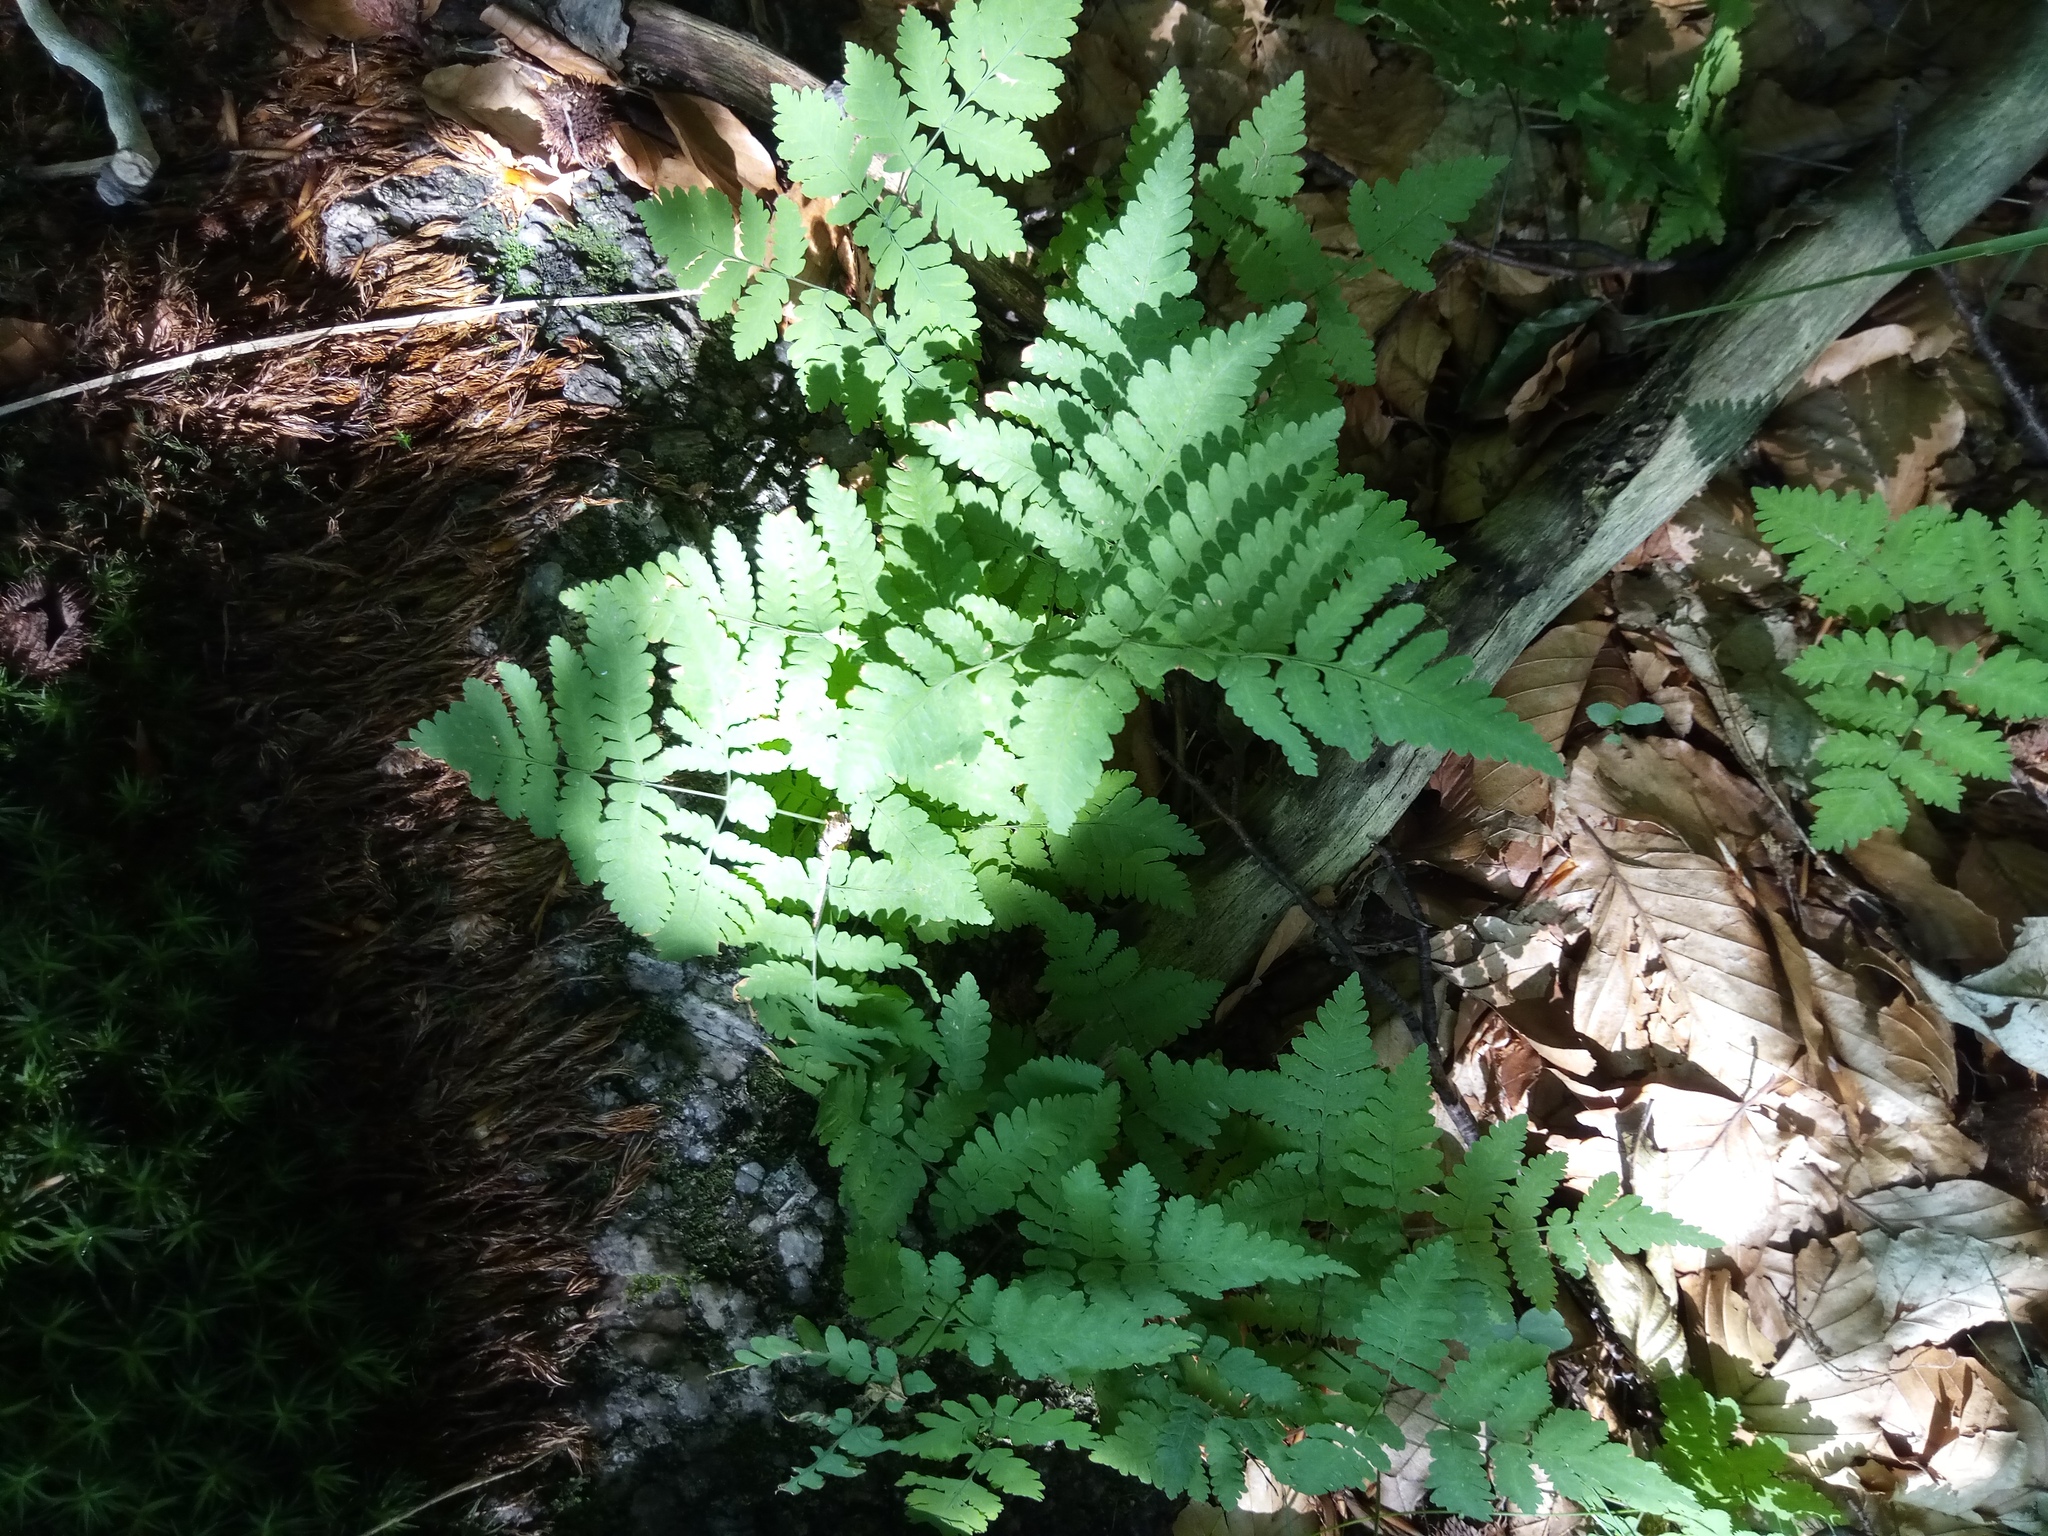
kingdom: Plantae
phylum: Tracheophyta
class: Polypodiopsida
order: Polypodiales
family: Thelypteridaceae
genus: Phegopteris
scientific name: Phegopteris connectilis
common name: Beech fern
